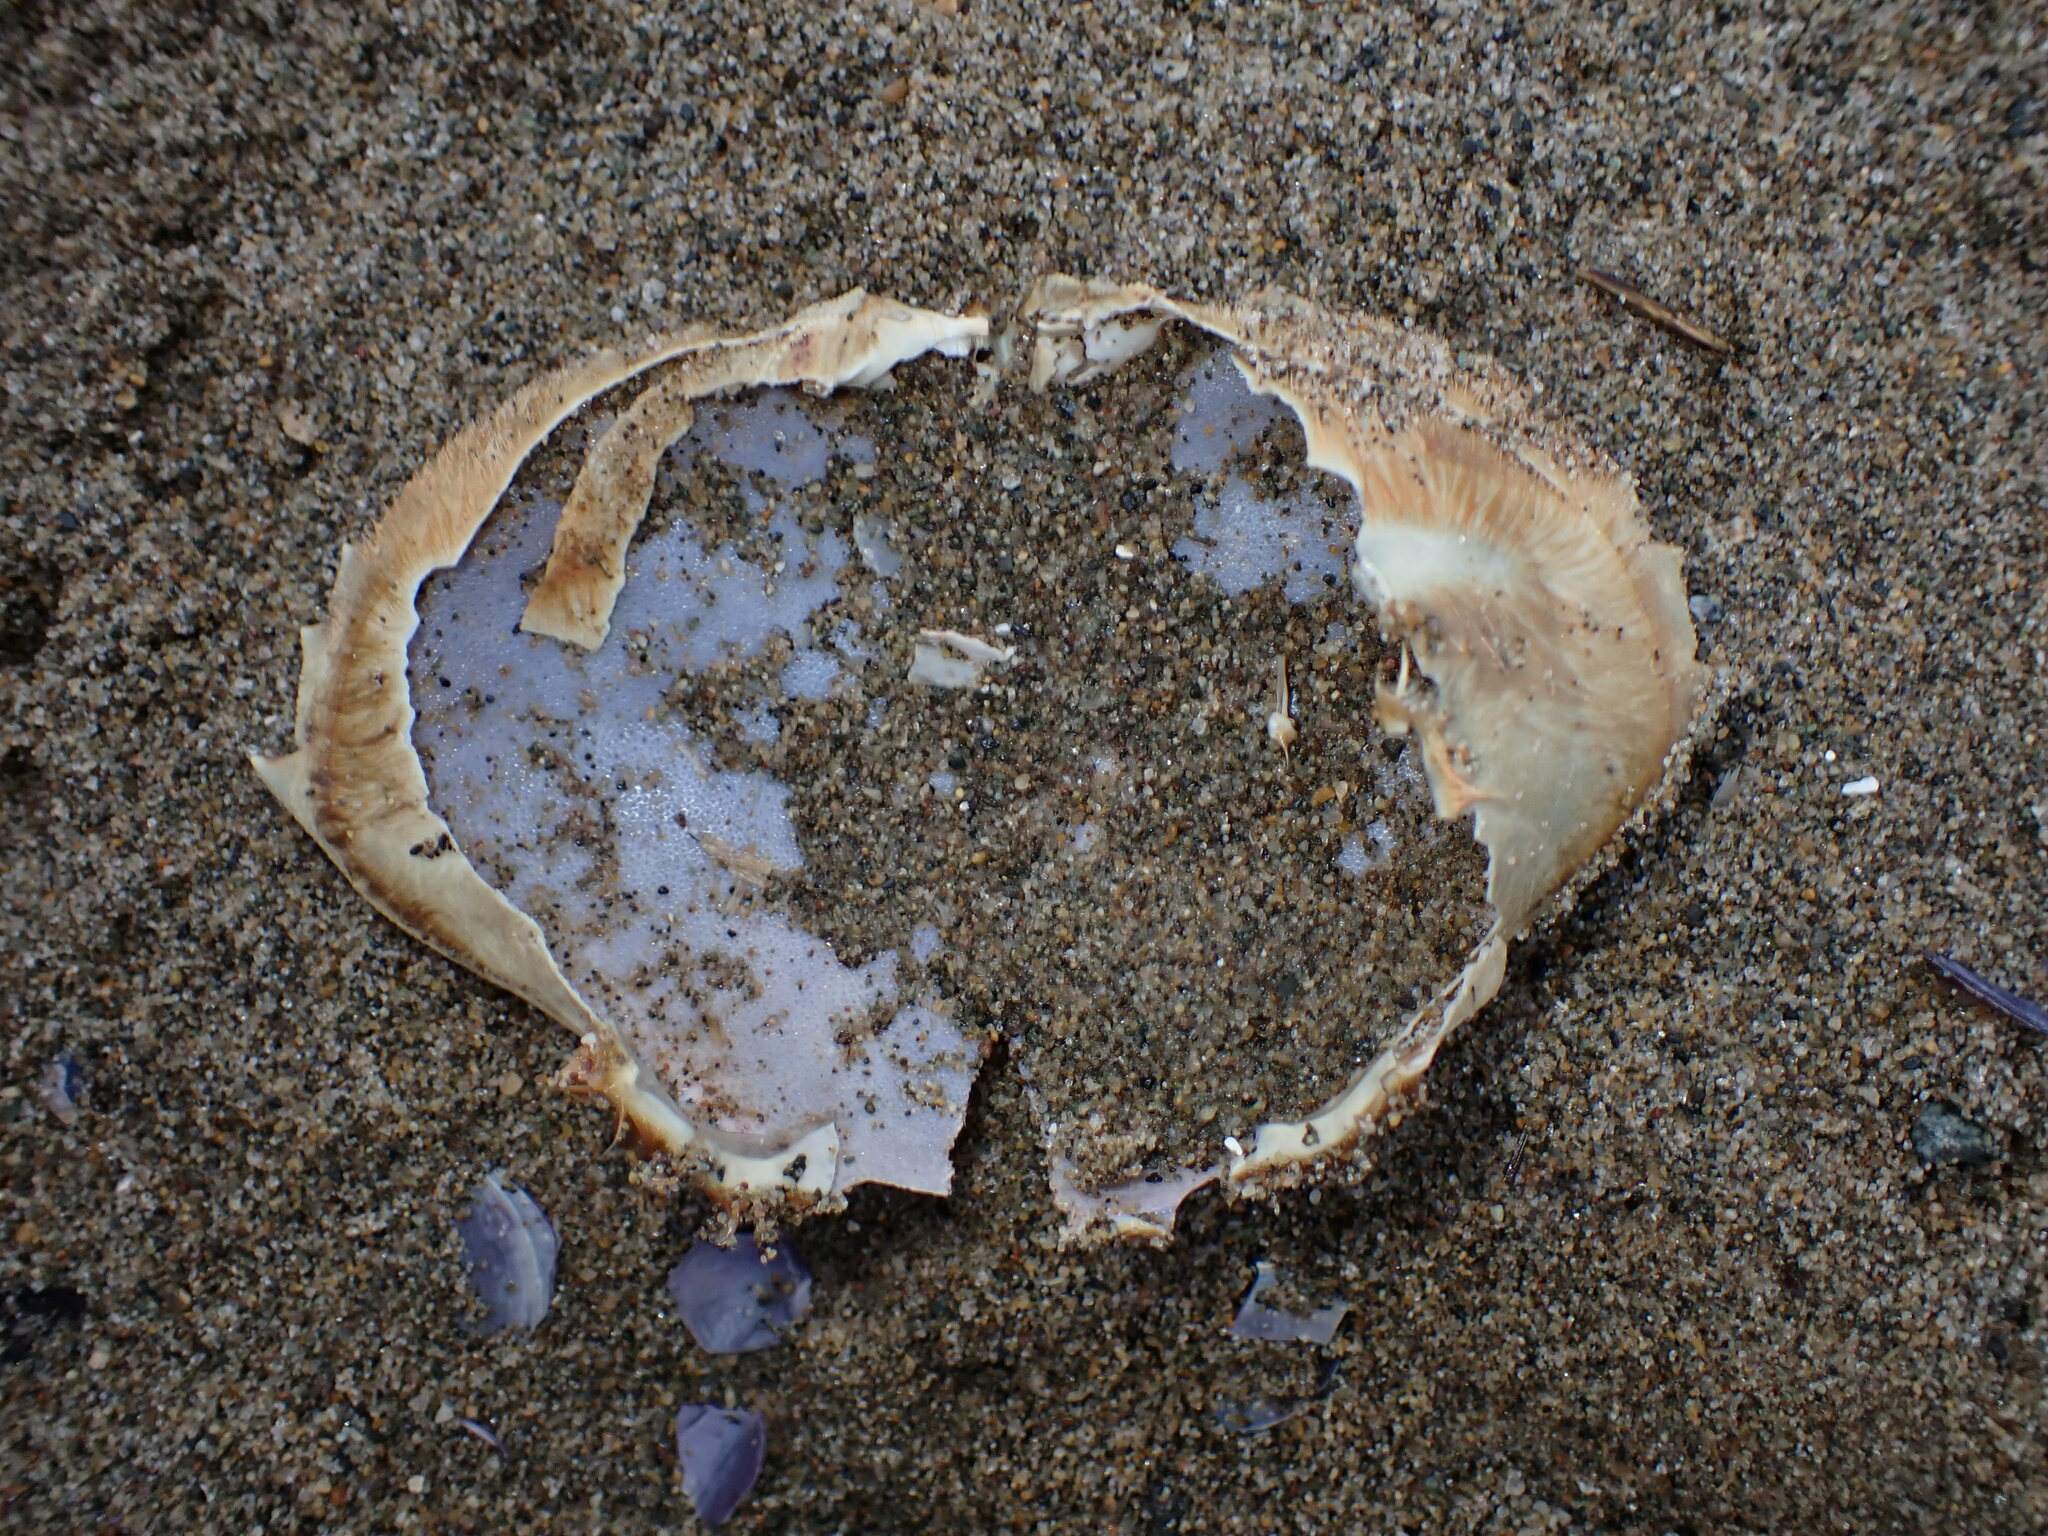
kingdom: Animalia
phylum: Arthropoda
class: Malacostraca
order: Decapoda
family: Cancridae
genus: Metacarcinus
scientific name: Metacarcinus magister
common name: Californian crab
